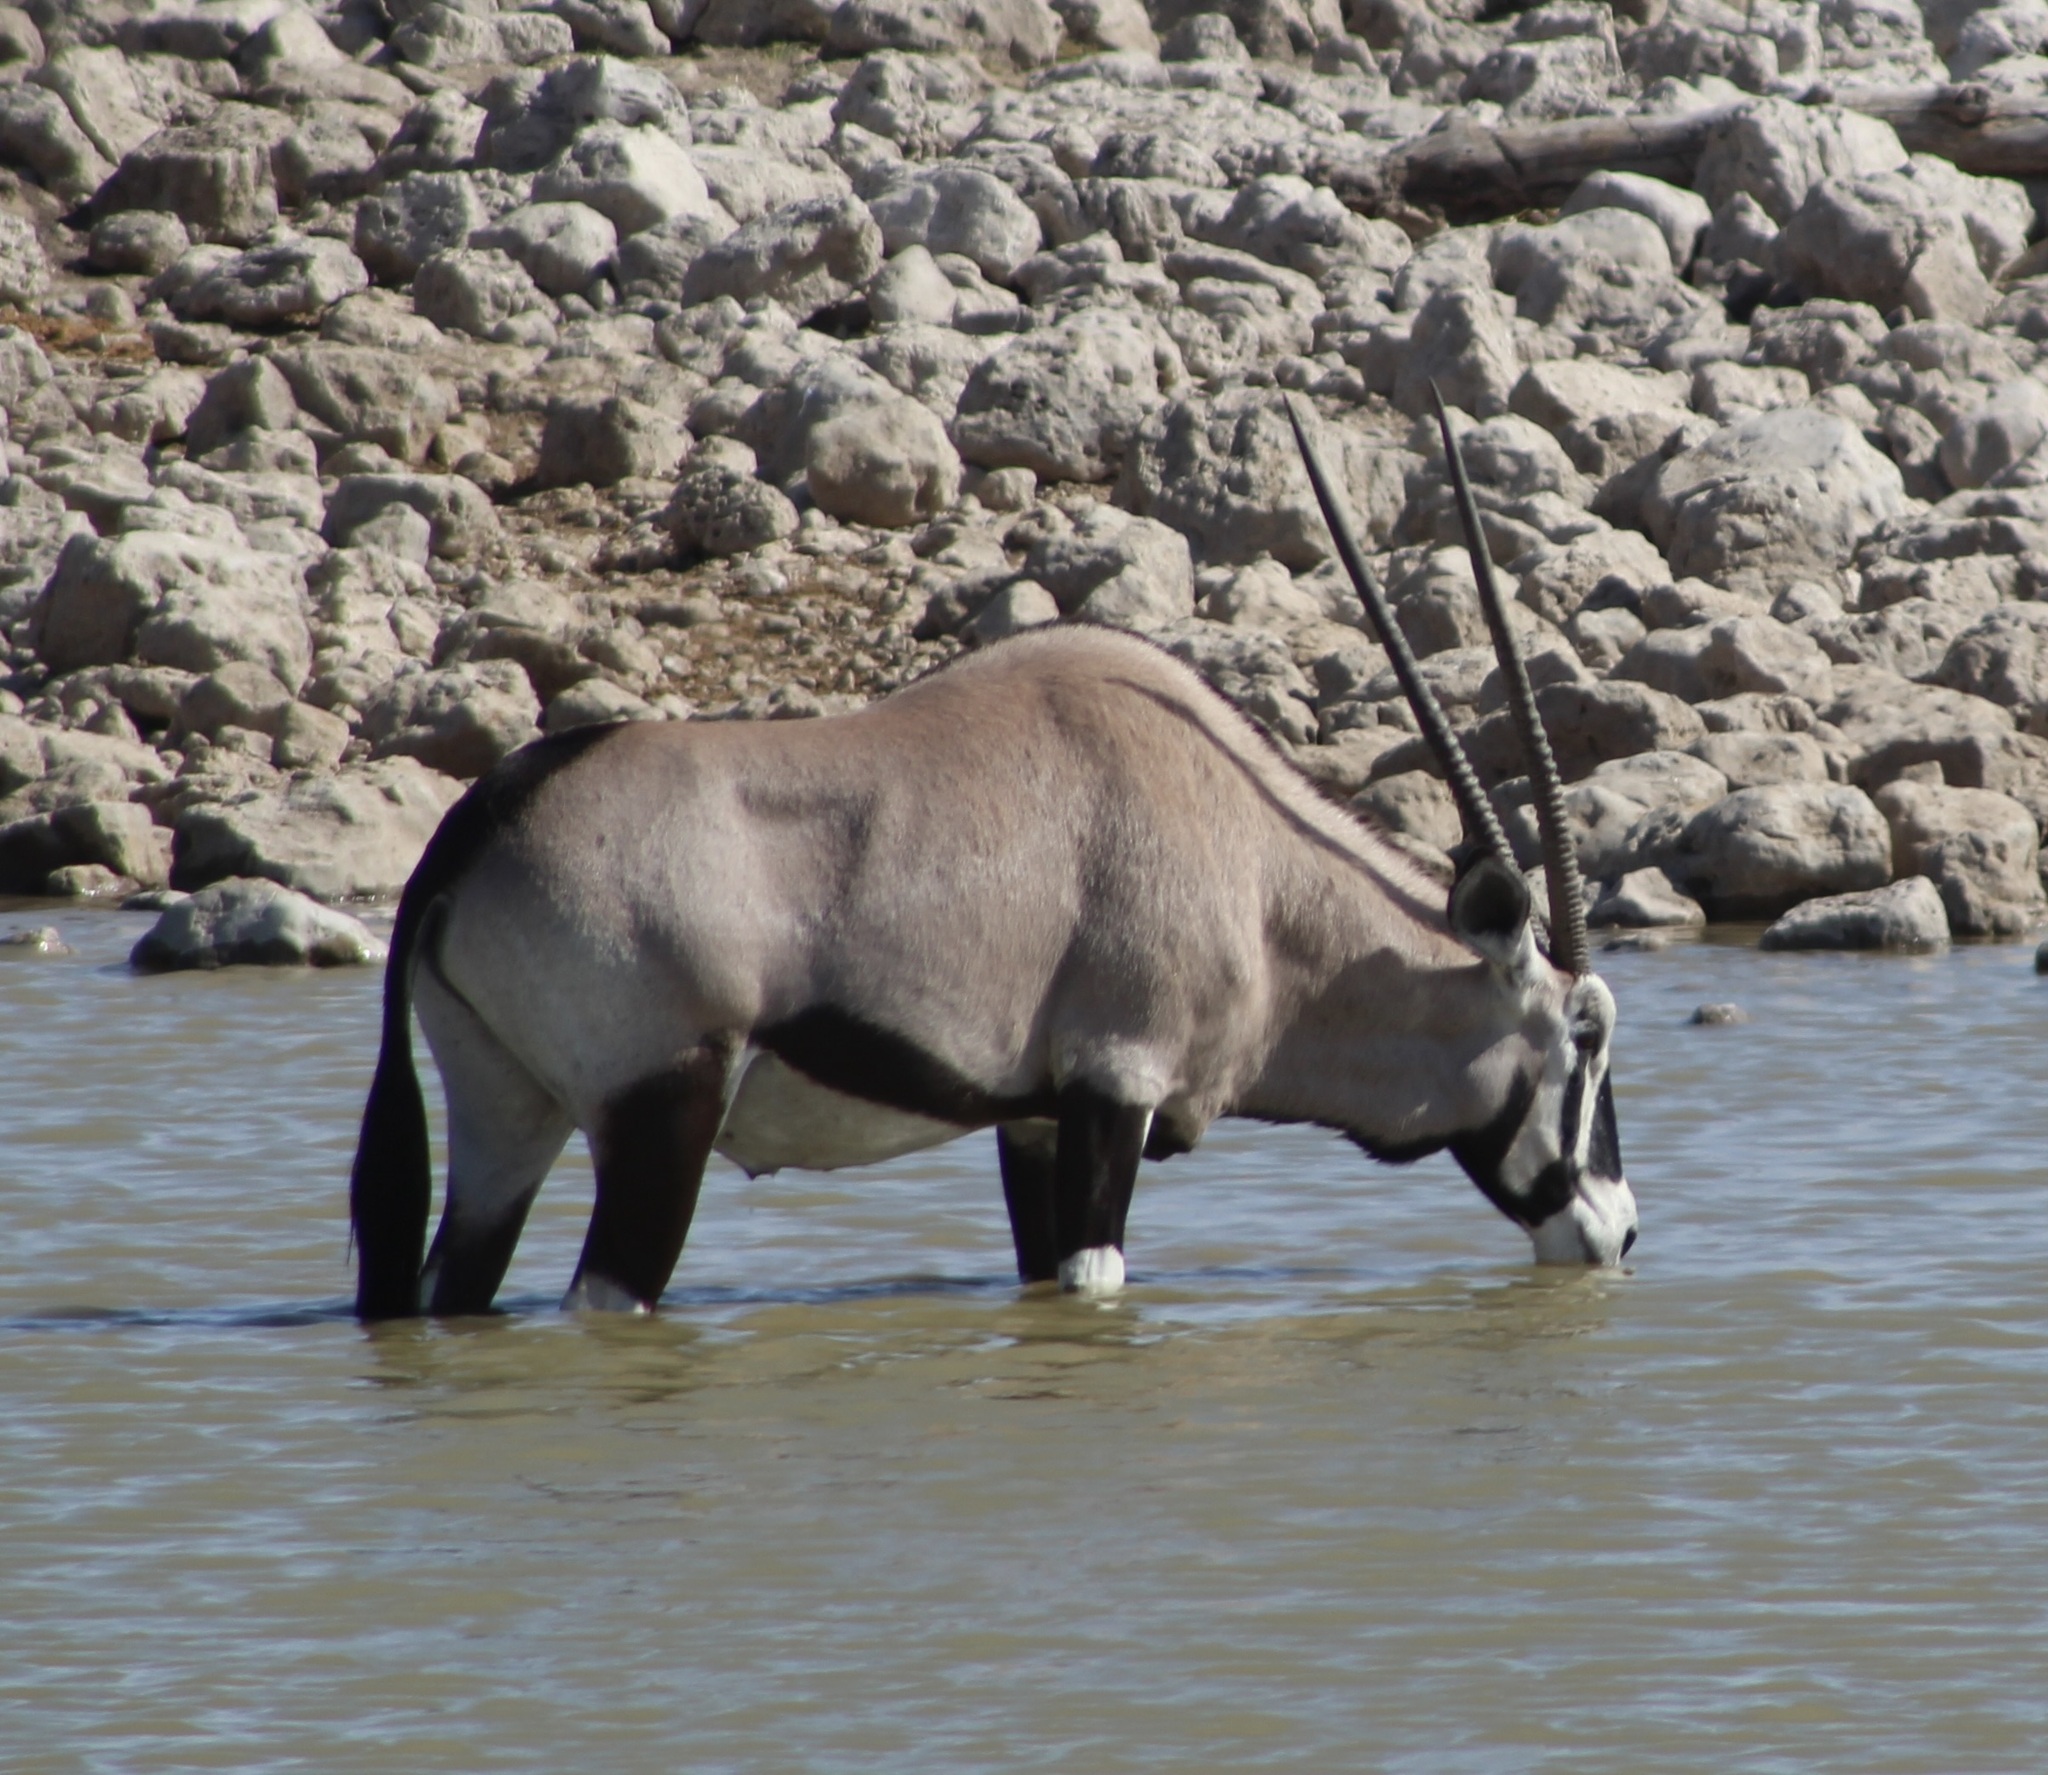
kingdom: Animalia
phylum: Chordata
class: Mammalia
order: Artiodactyla
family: Bovidae
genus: Oryx
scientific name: Oryx gazella
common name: Gemsbok
